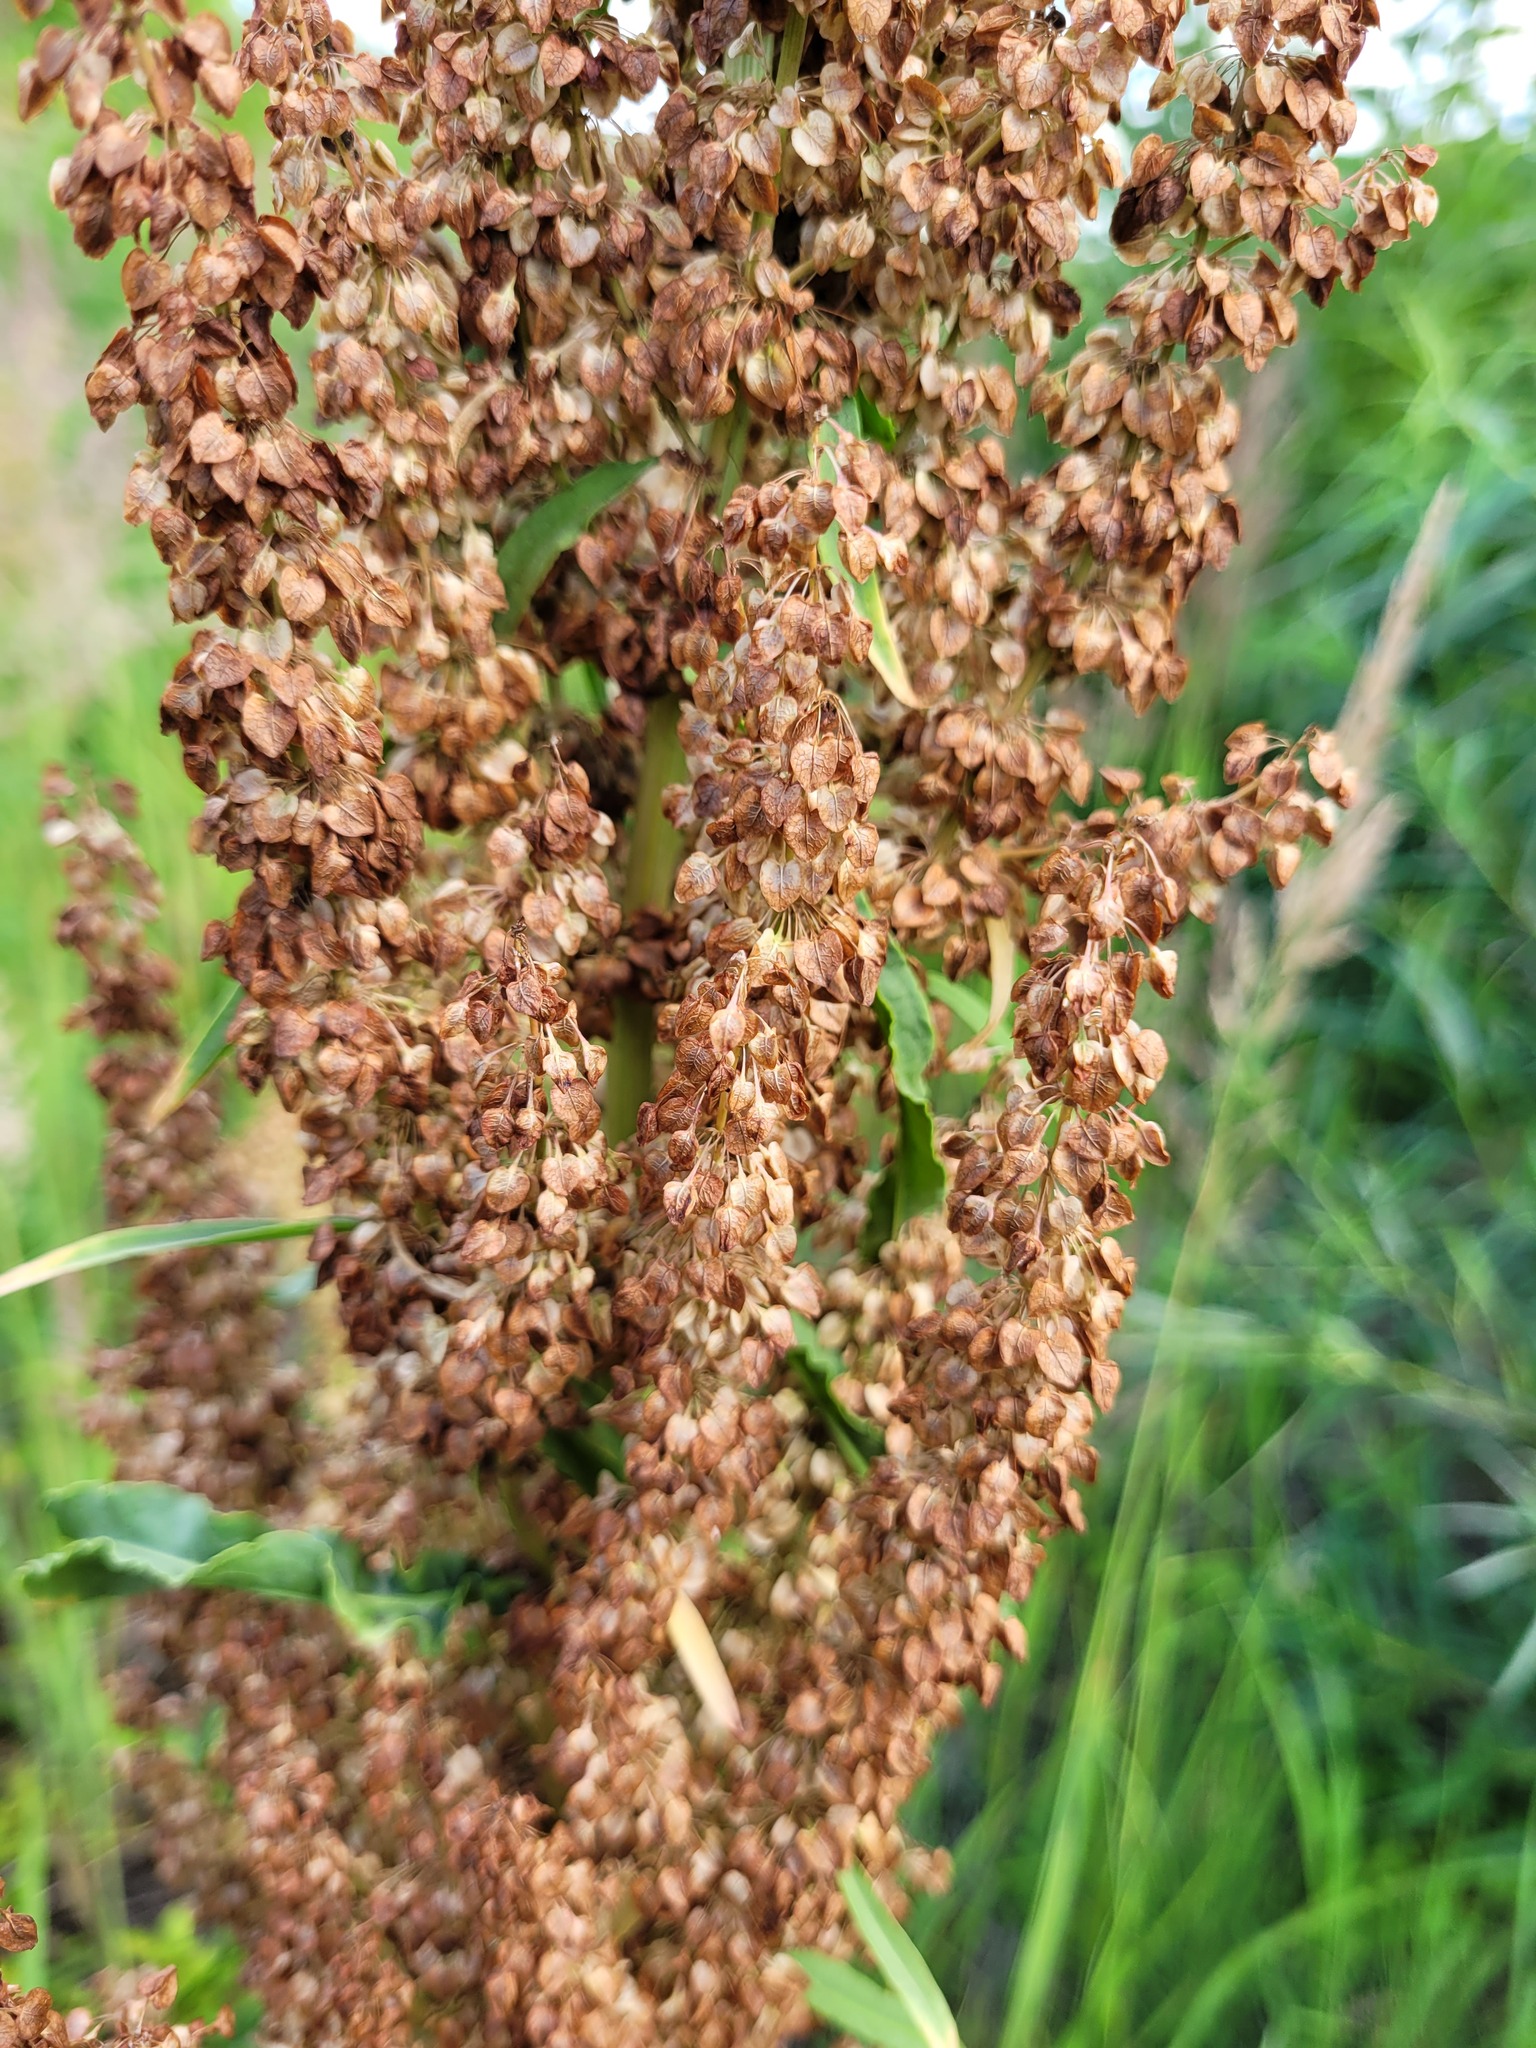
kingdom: Plantae
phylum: Tracheophyta
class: Magnoliopsida
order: Caryophyllales
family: Polygonaceae
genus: Rumex
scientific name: Rumex pseudonatronatus
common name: Field dock
